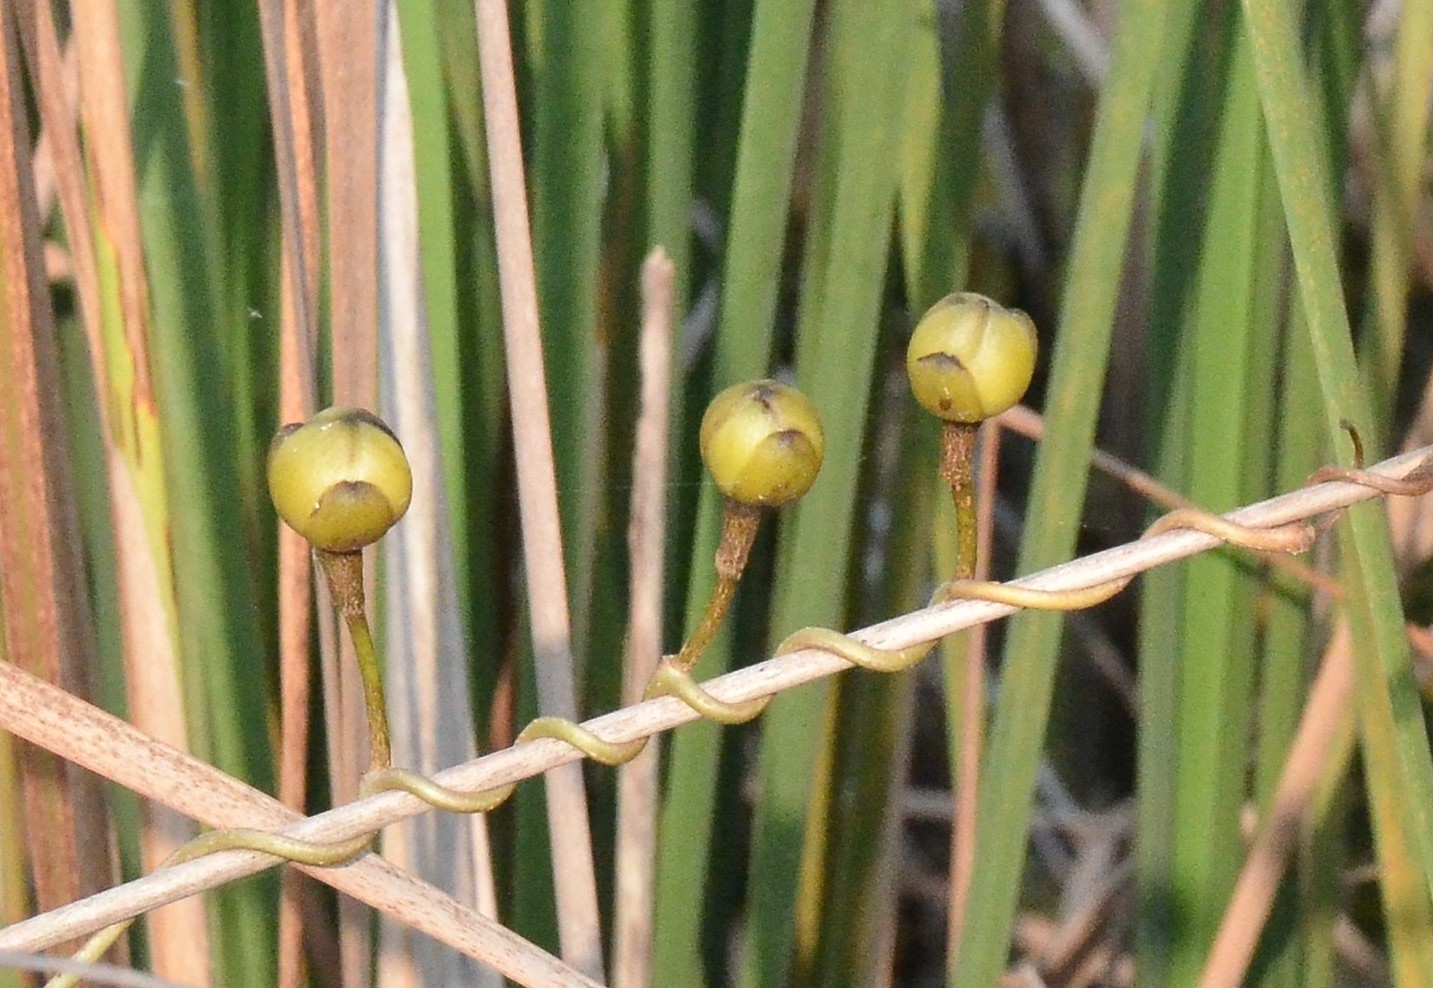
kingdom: Plantae
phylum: Tracheophyta
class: Magnoliopsida
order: Solanales
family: Convolvulaceae
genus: Ipomoea
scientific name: Ipomoea violacea
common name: Beach moonflower
